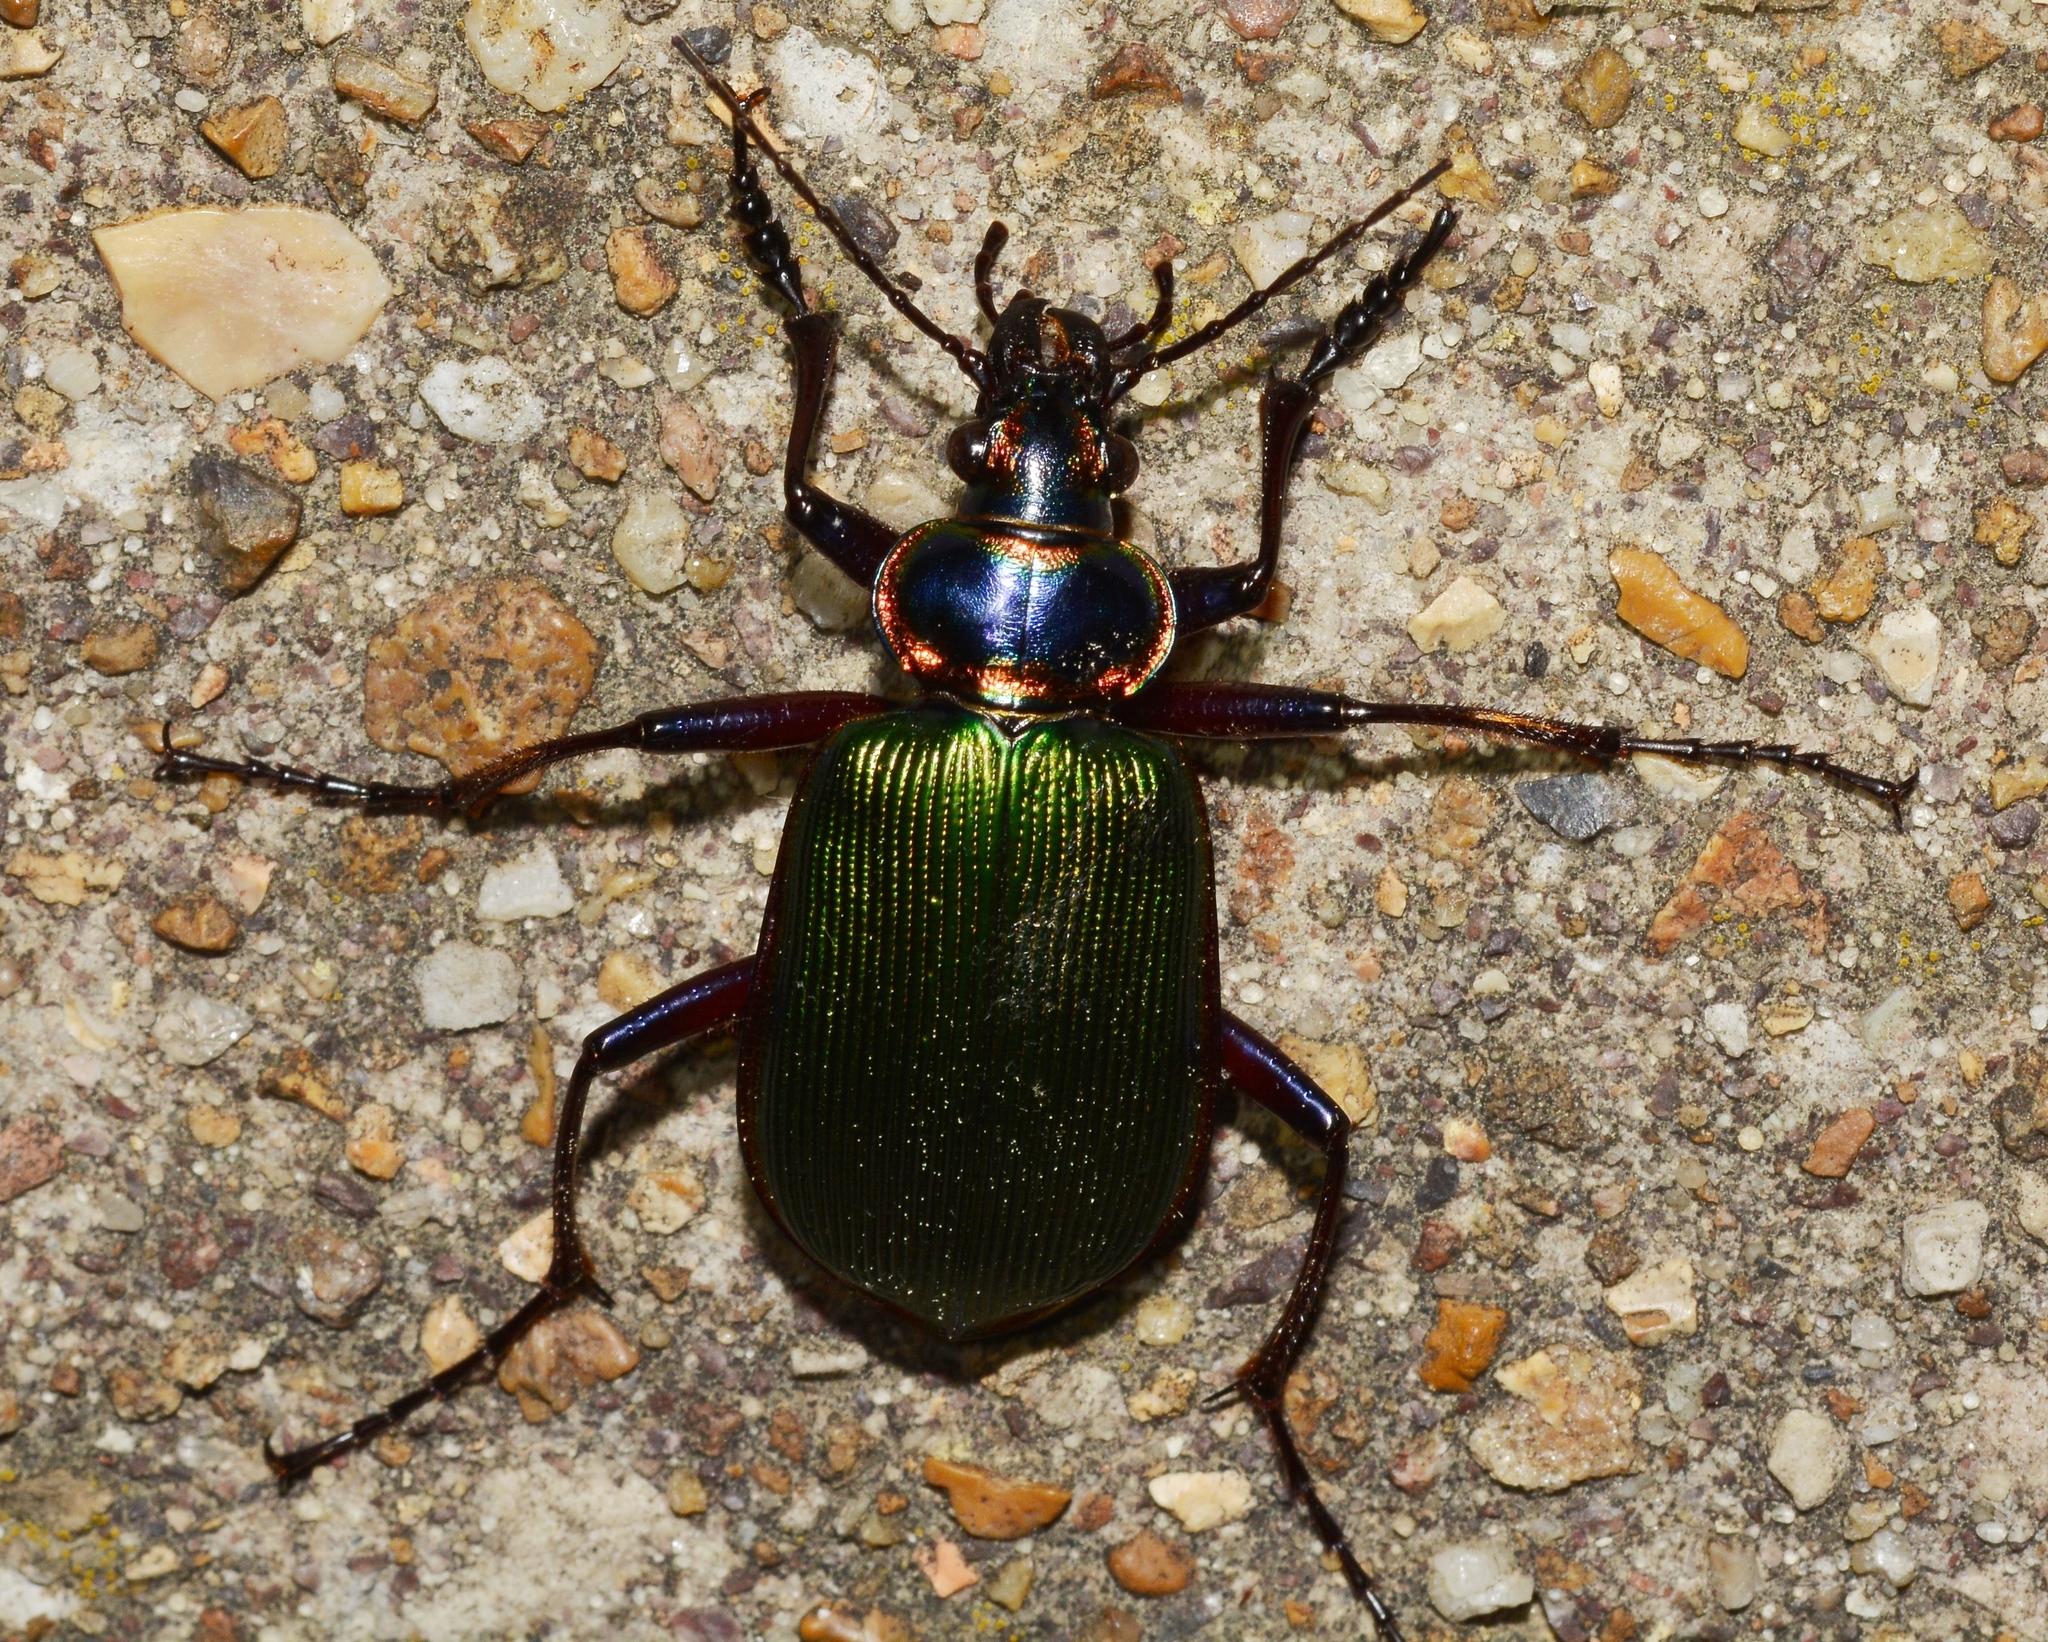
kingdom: Animalia
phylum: Arthropoda
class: Insecta
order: Coleoptera
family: Carabidae
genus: Calosoma
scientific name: Calosoma scrutator
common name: Fiery searcher beetle
